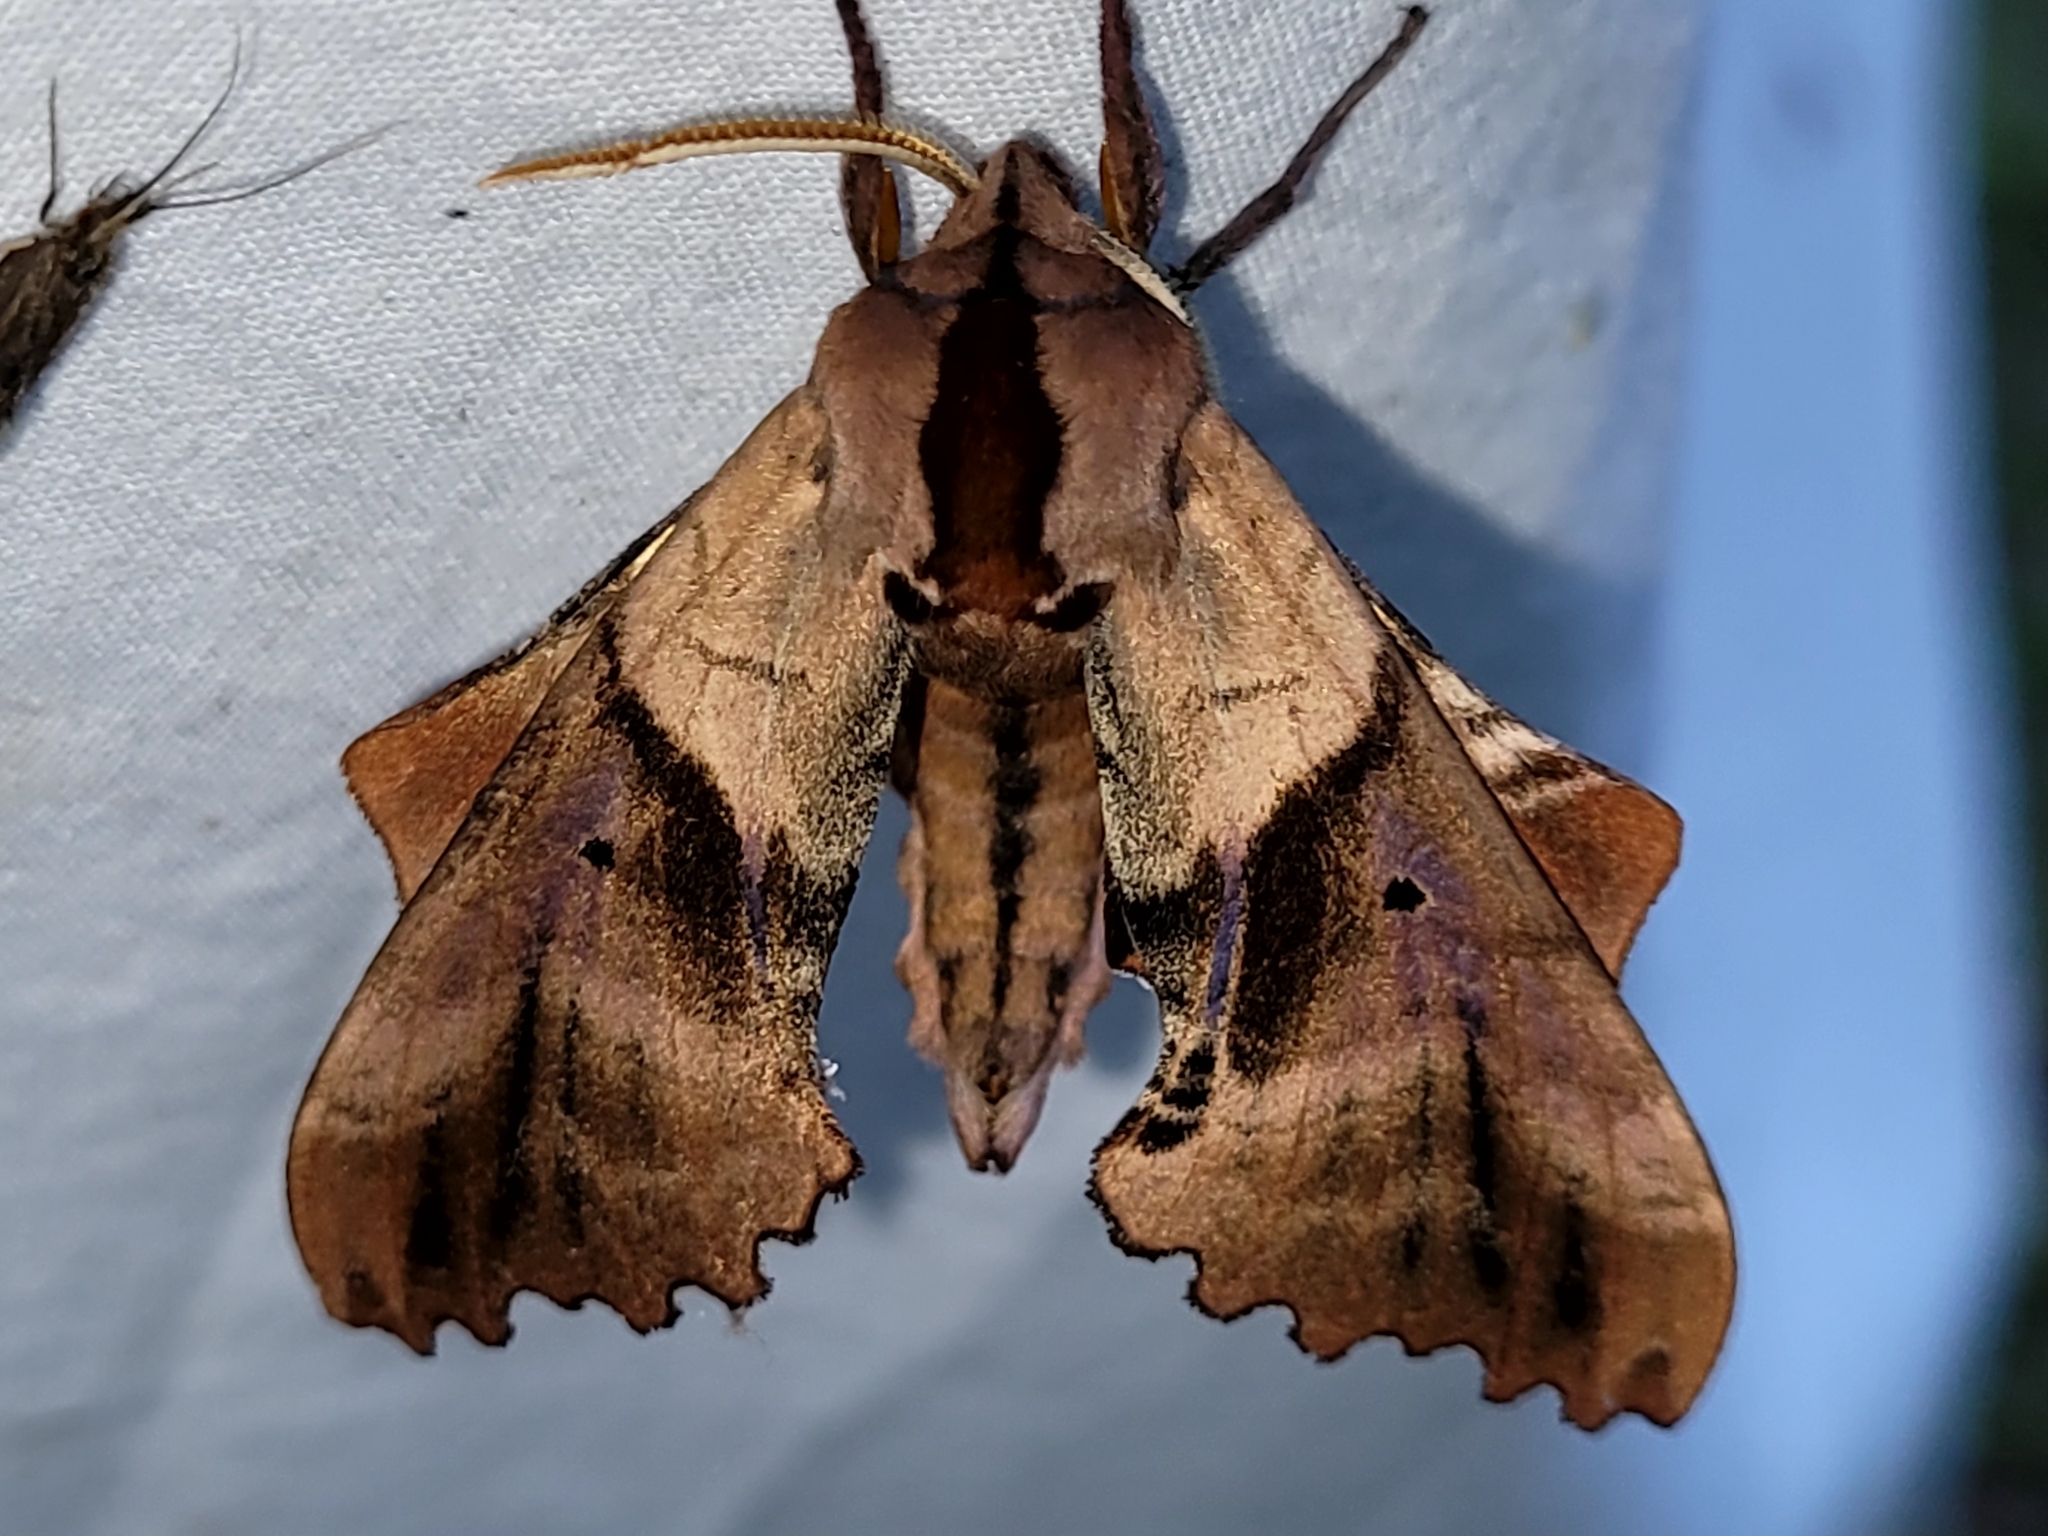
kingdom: Animalia
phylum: Arthropoda
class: Insecta
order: Lepidoptera
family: Sphingidae
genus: Paonias
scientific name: Paonias excaecata
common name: Blind-eyed sphinx
